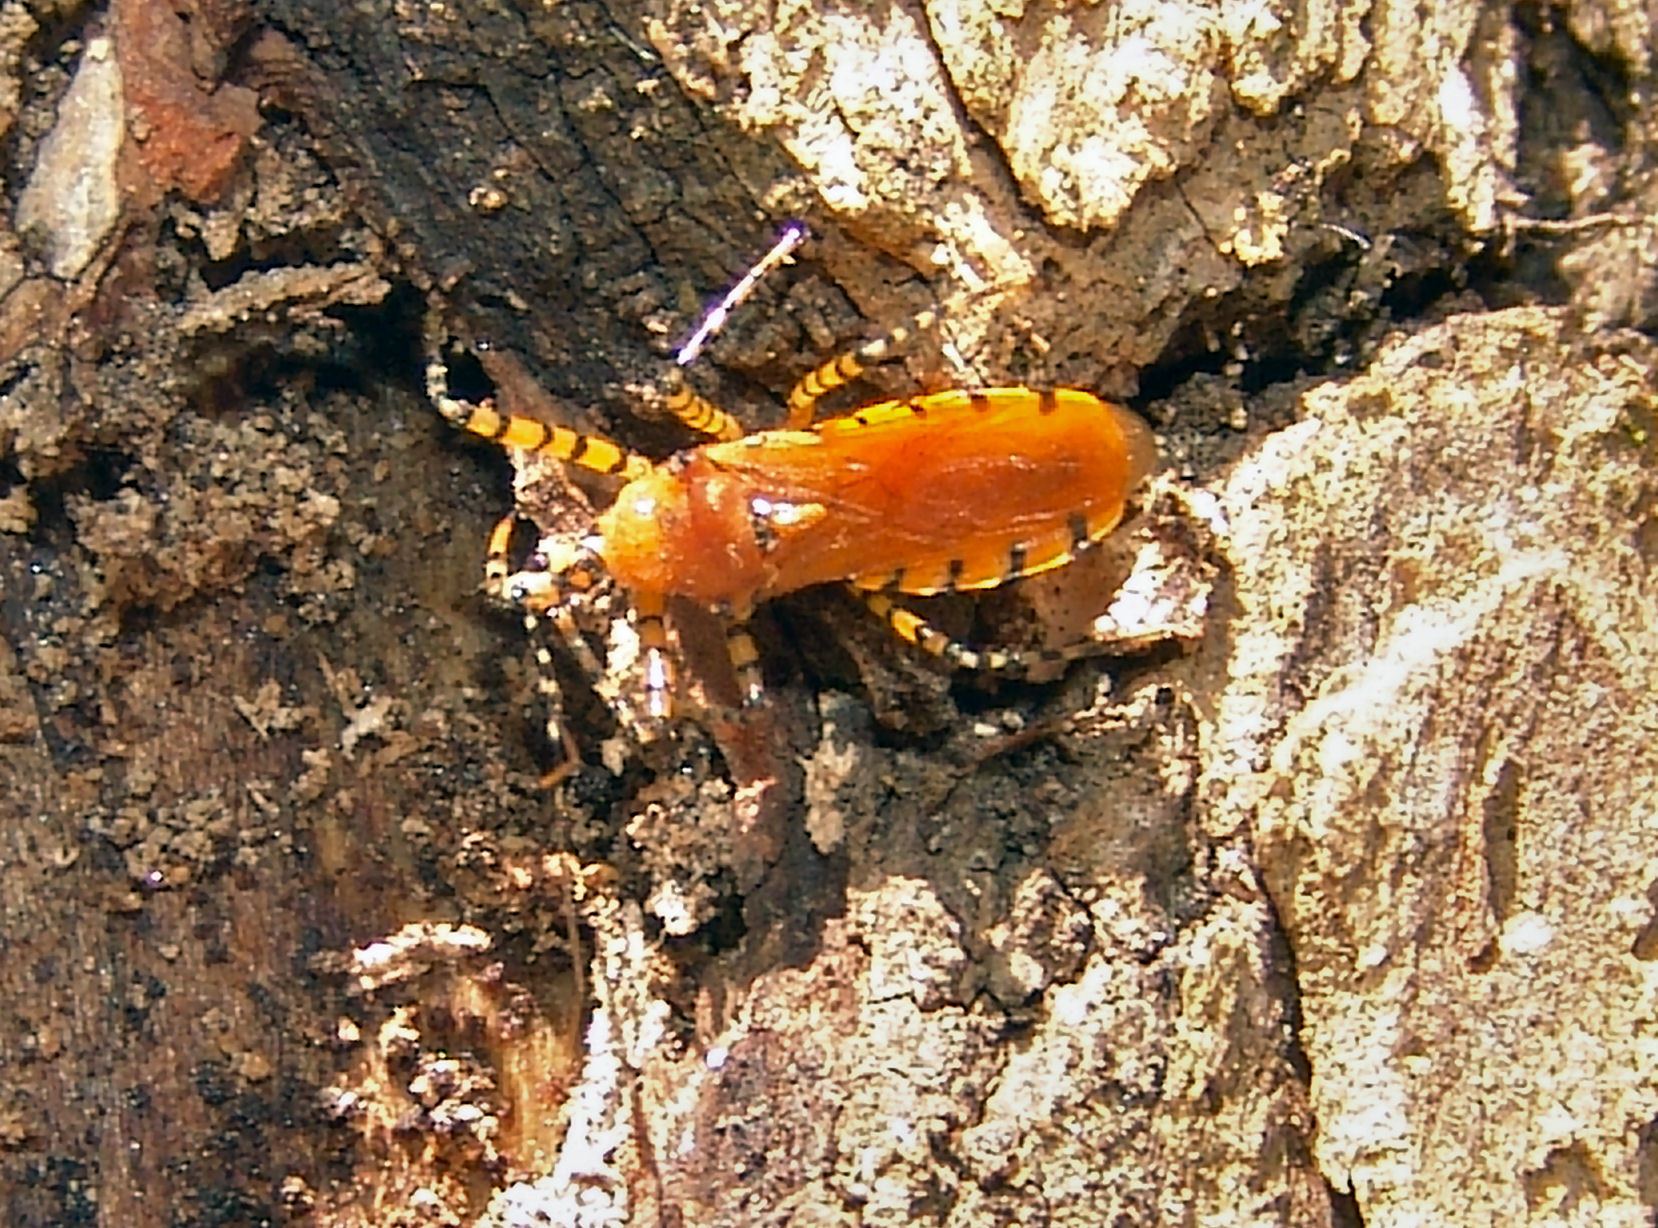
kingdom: Animalia
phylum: Arthropoda
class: Insecta
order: Hemiptera
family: Reduviidae
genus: Pselliopus
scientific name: Pselliopus barberi
